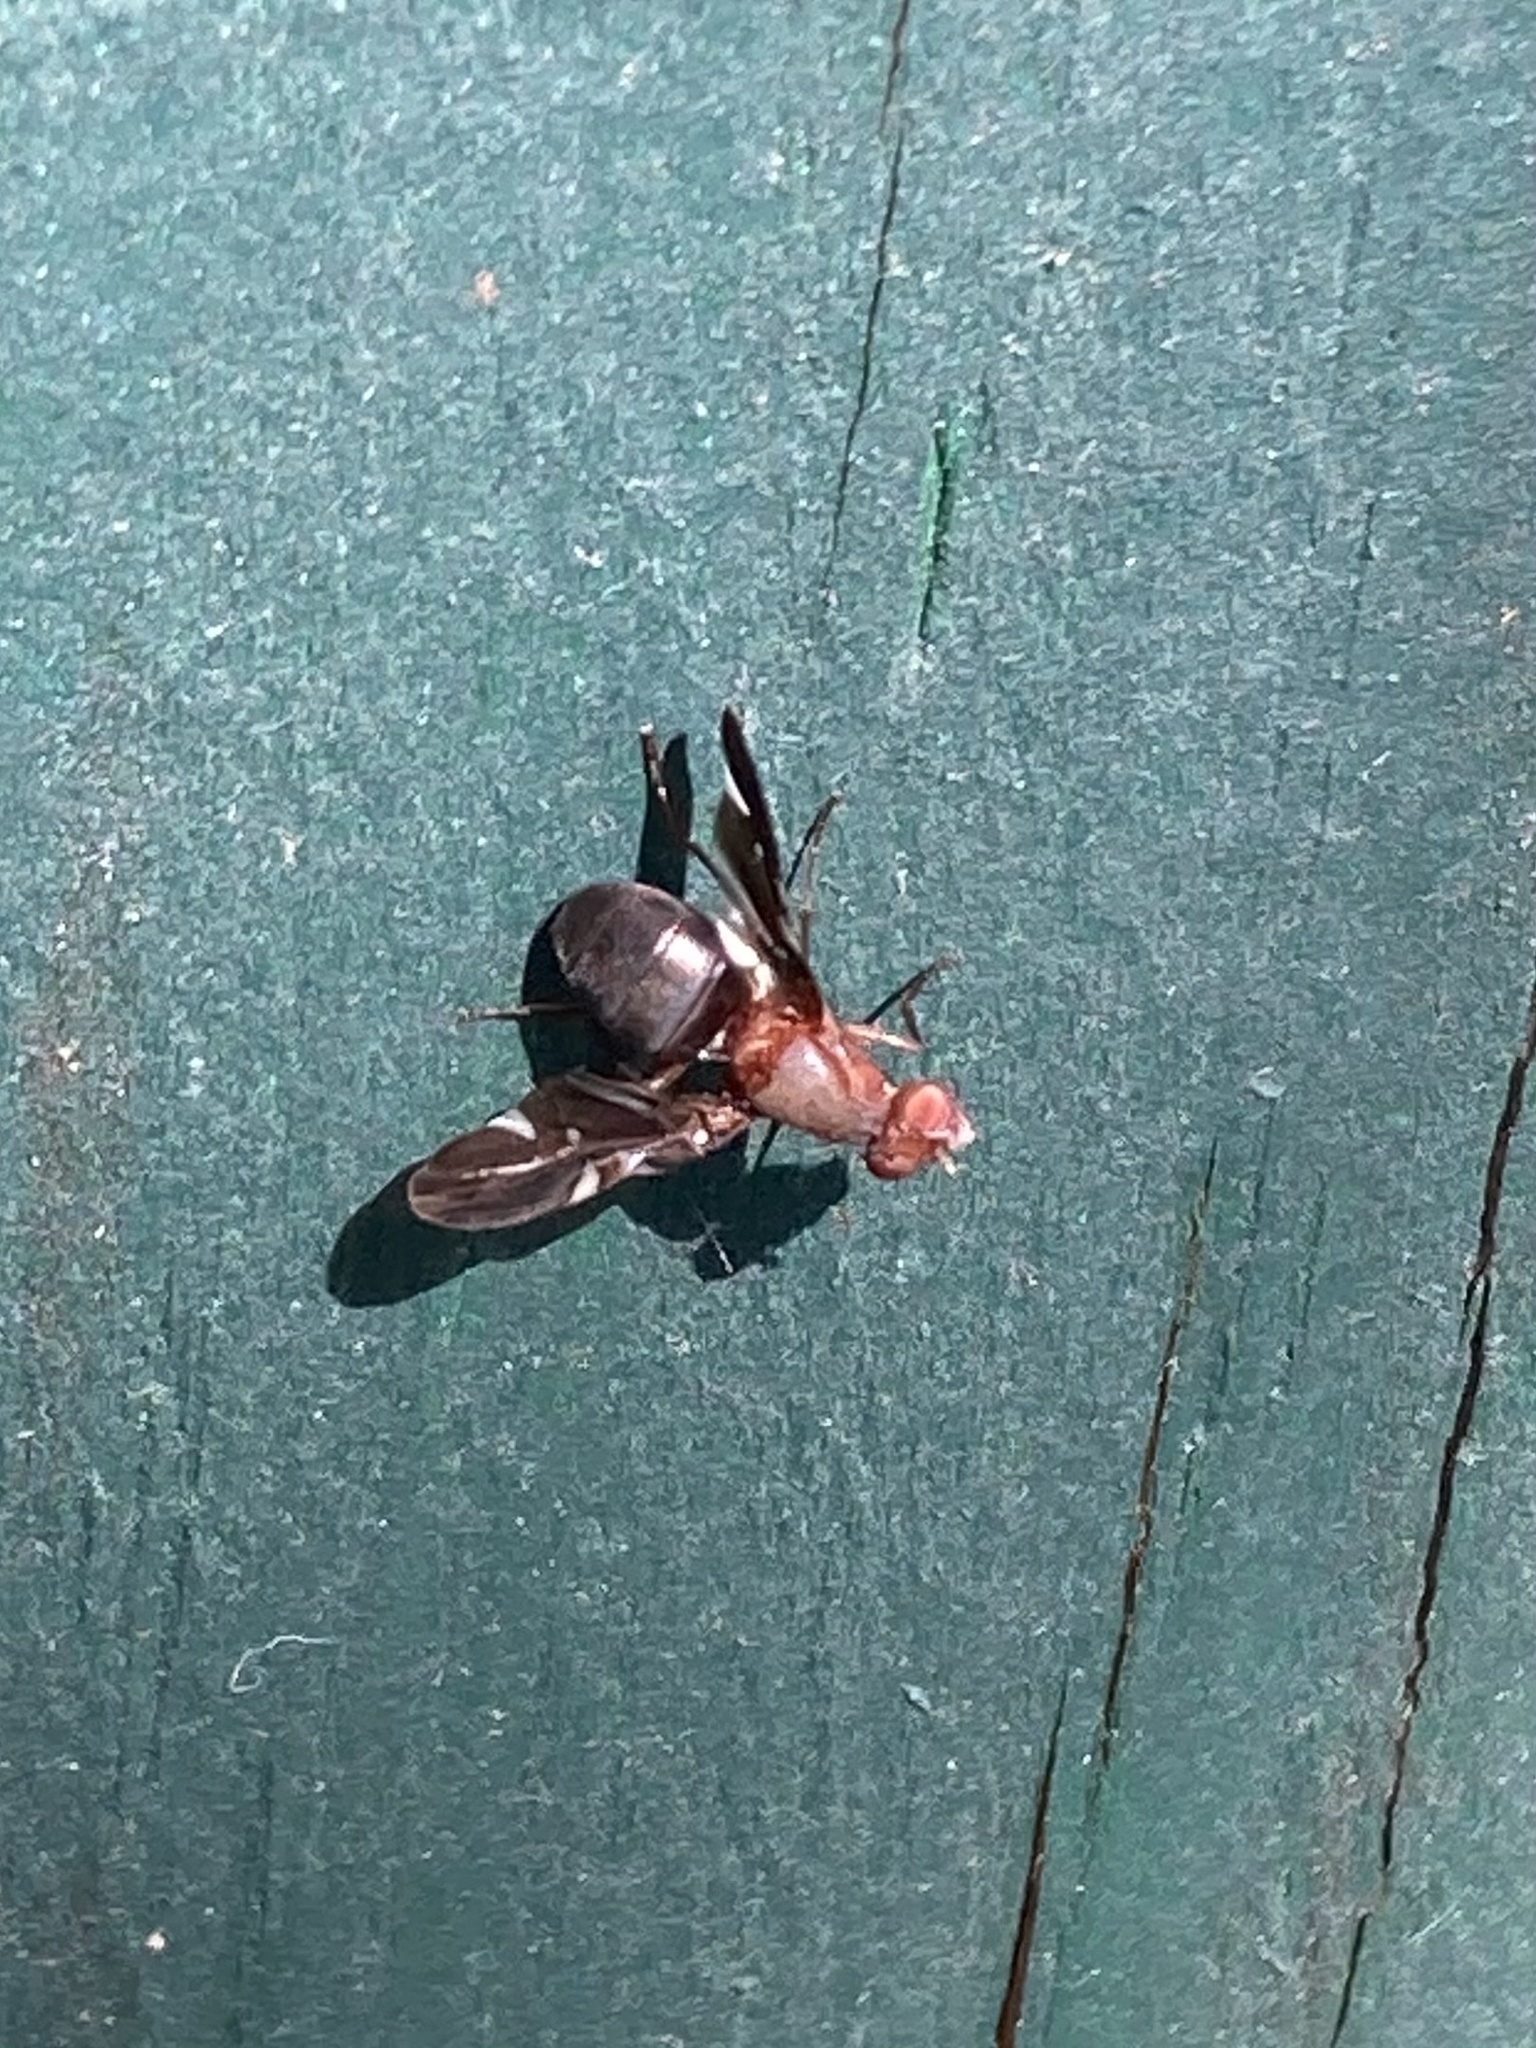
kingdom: Animalia
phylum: Arthropoda
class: Insecta
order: Diptera
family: Ulidiidae
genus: Delphinia
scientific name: Delphinia picta
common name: Common picture-winged fly
